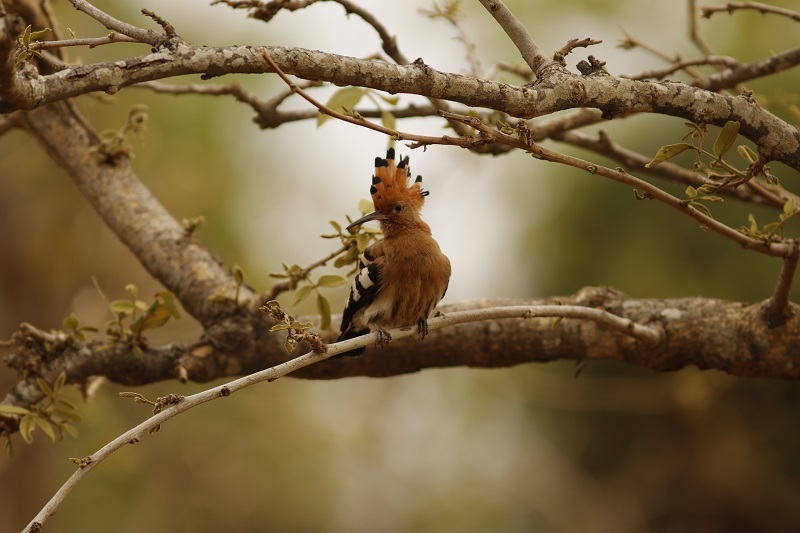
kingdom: Animalia
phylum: Chordata
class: Aves
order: Bucerotiformes
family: Upupidae
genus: Upupa
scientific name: Upupa africana
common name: African hoopoe
